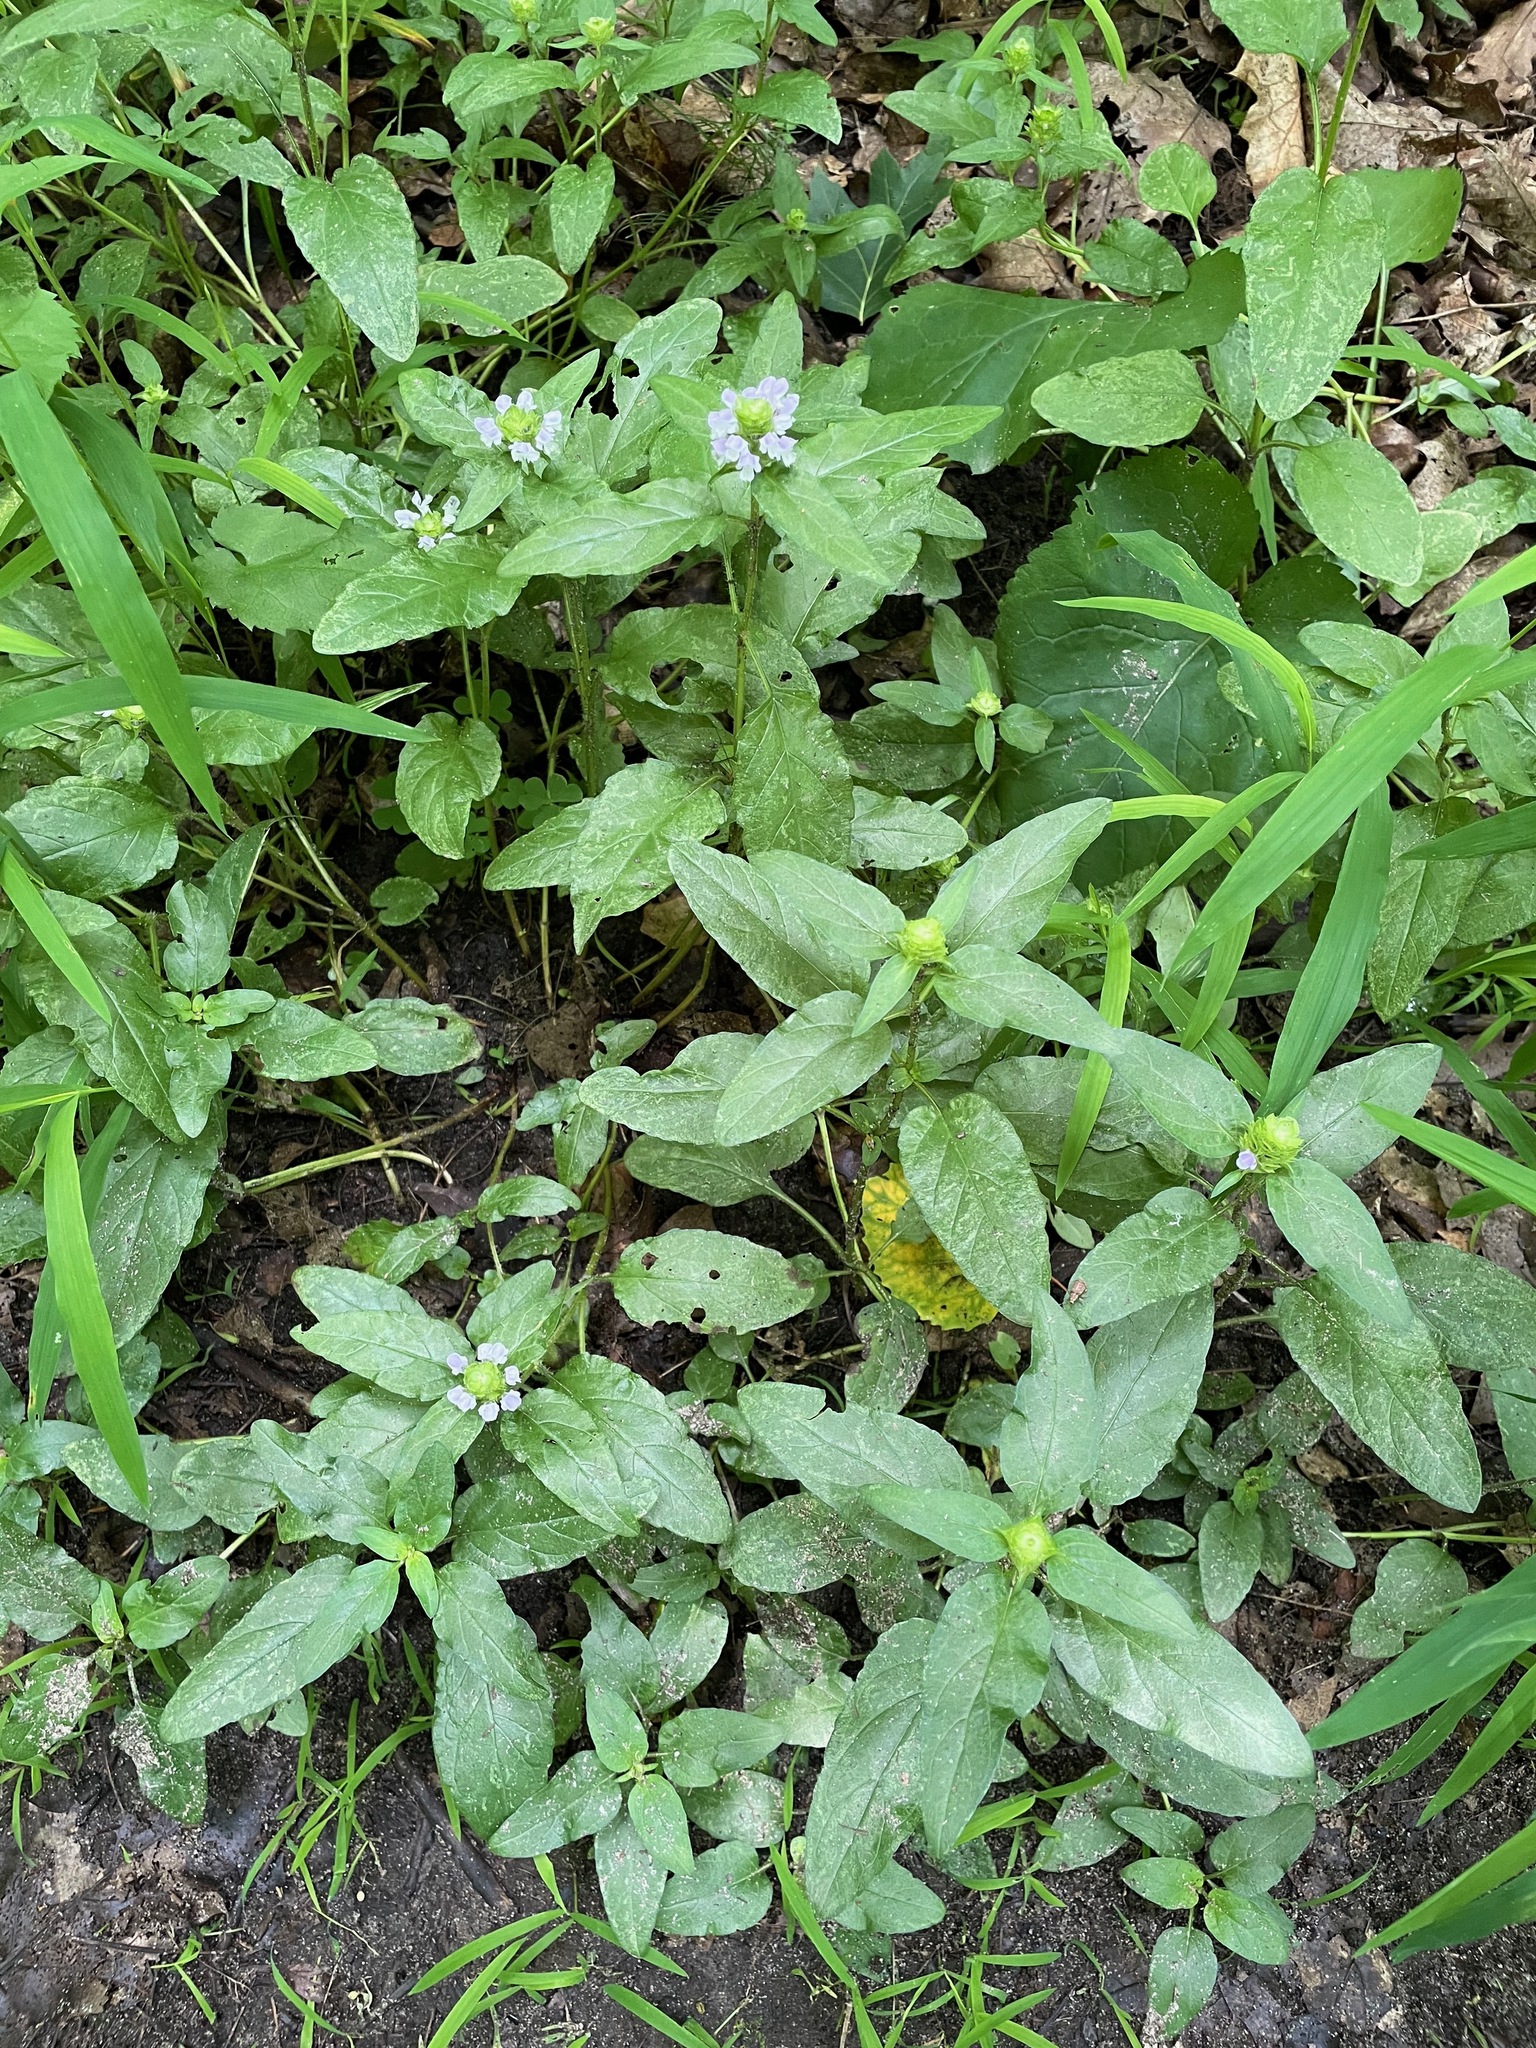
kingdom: Plantae
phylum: Tracheophyta
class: Magnoliopsida
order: Lamiales
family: Lamiaceae
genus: Prunella
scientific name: Prunella vulgaris
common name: Heal-all
